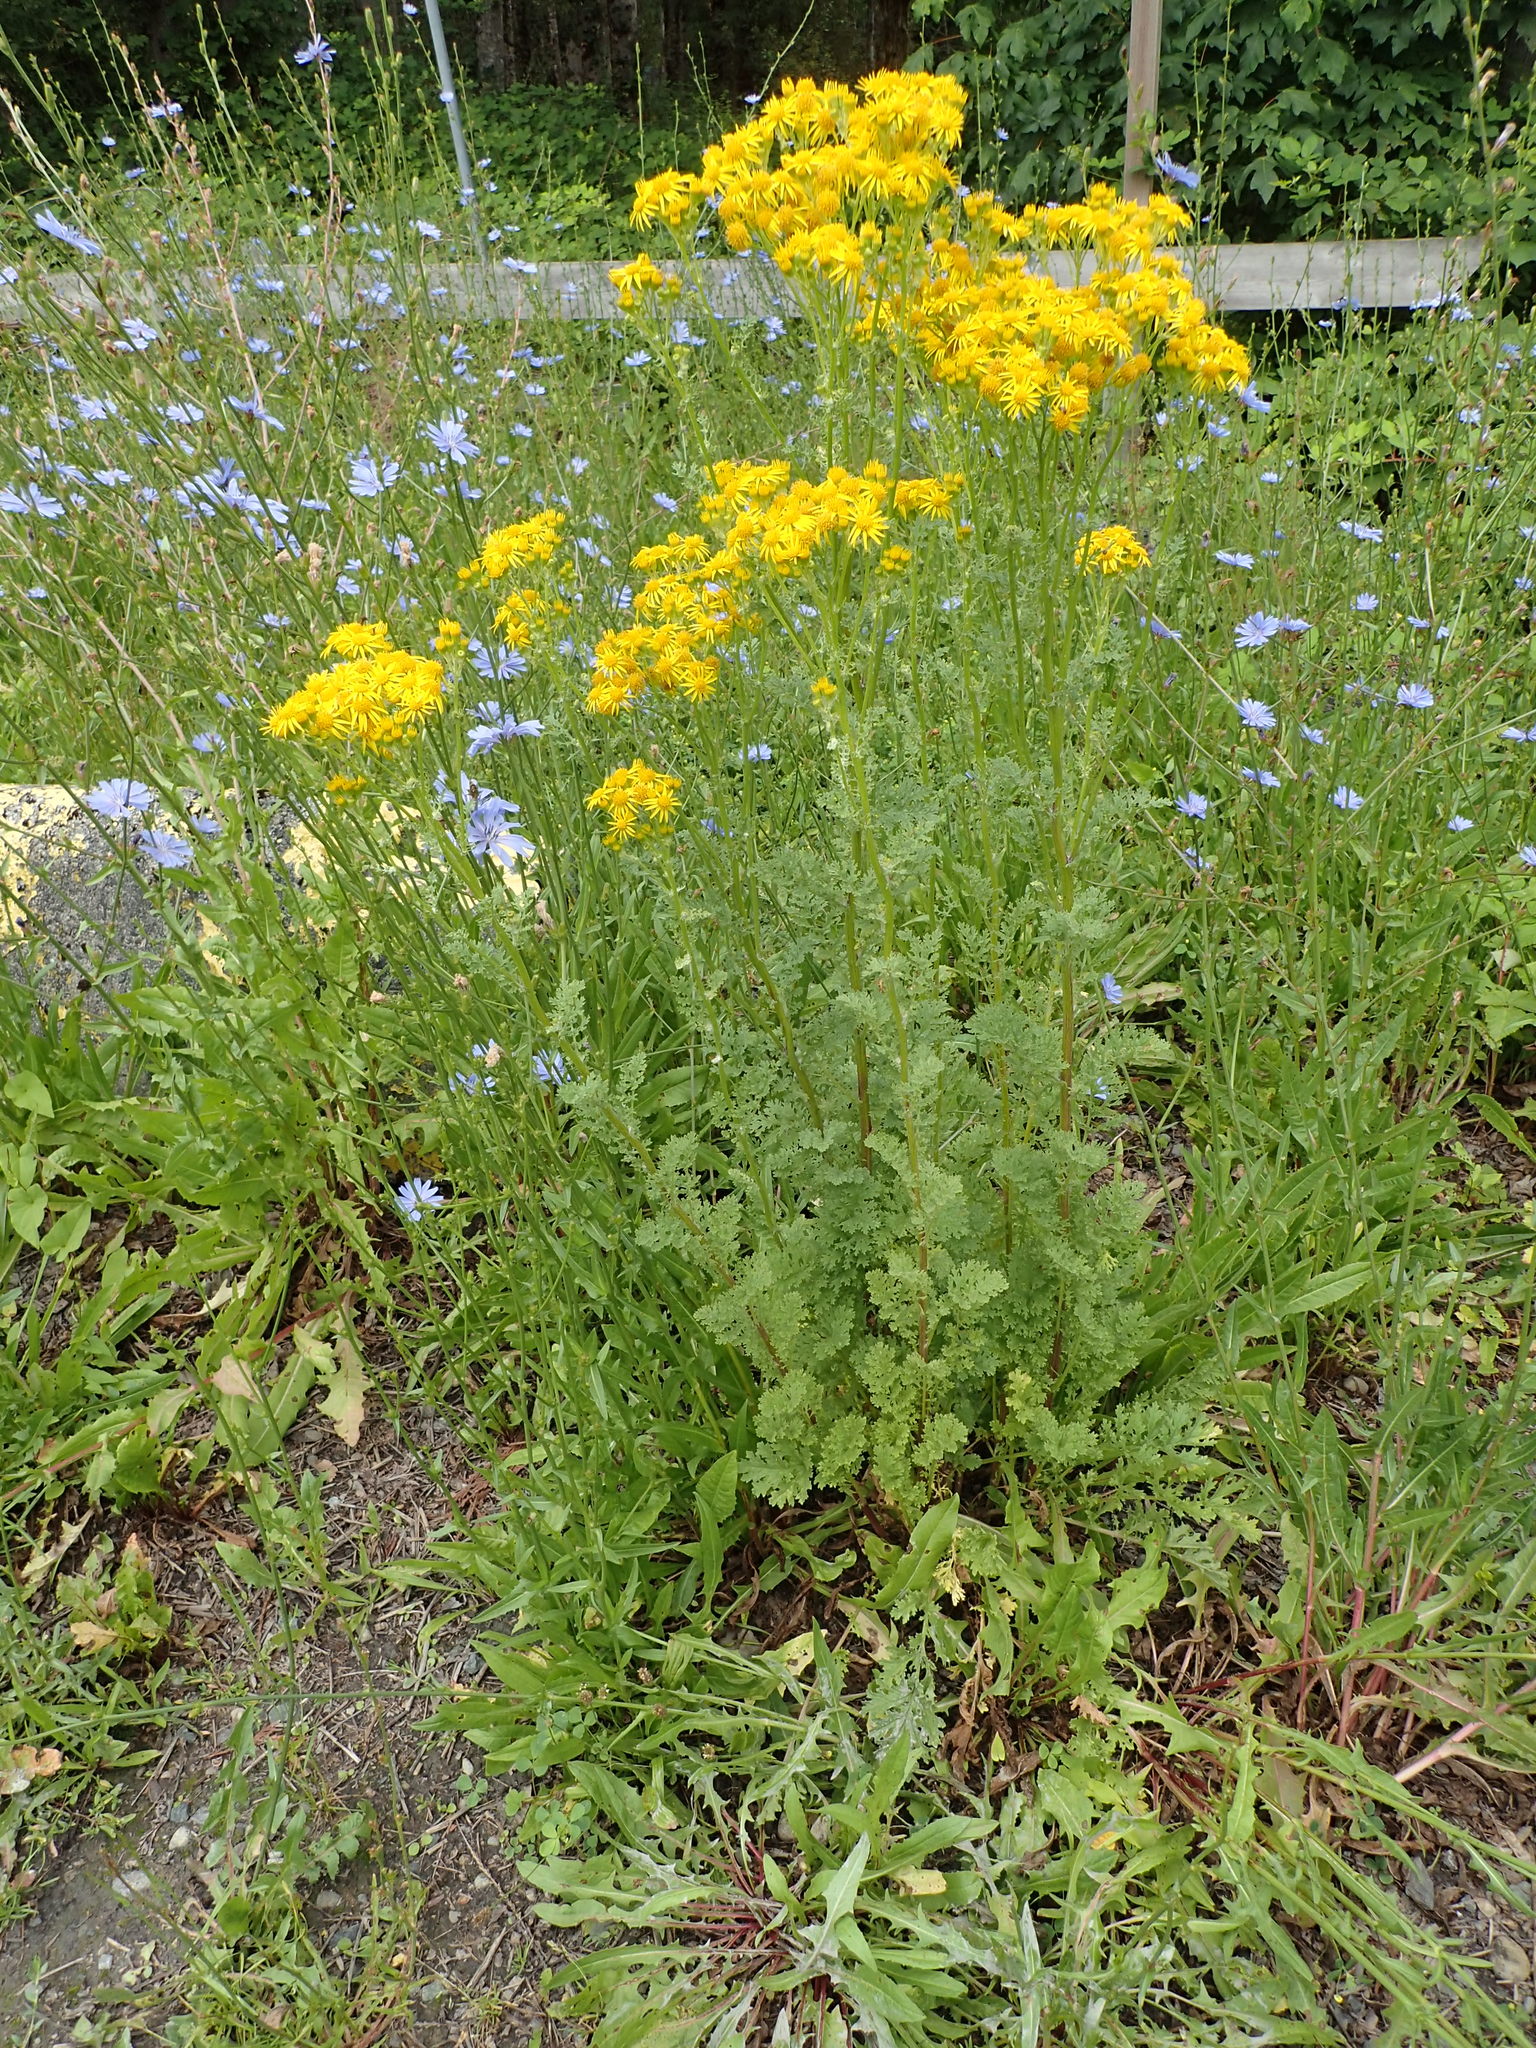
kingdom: Plantae
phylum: Tracheophyta
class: Magnoliopsida
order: Asterales
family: Asteraceae
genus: Jacobaea
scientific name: Jacobaea vulgaris
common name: Stinking willie
